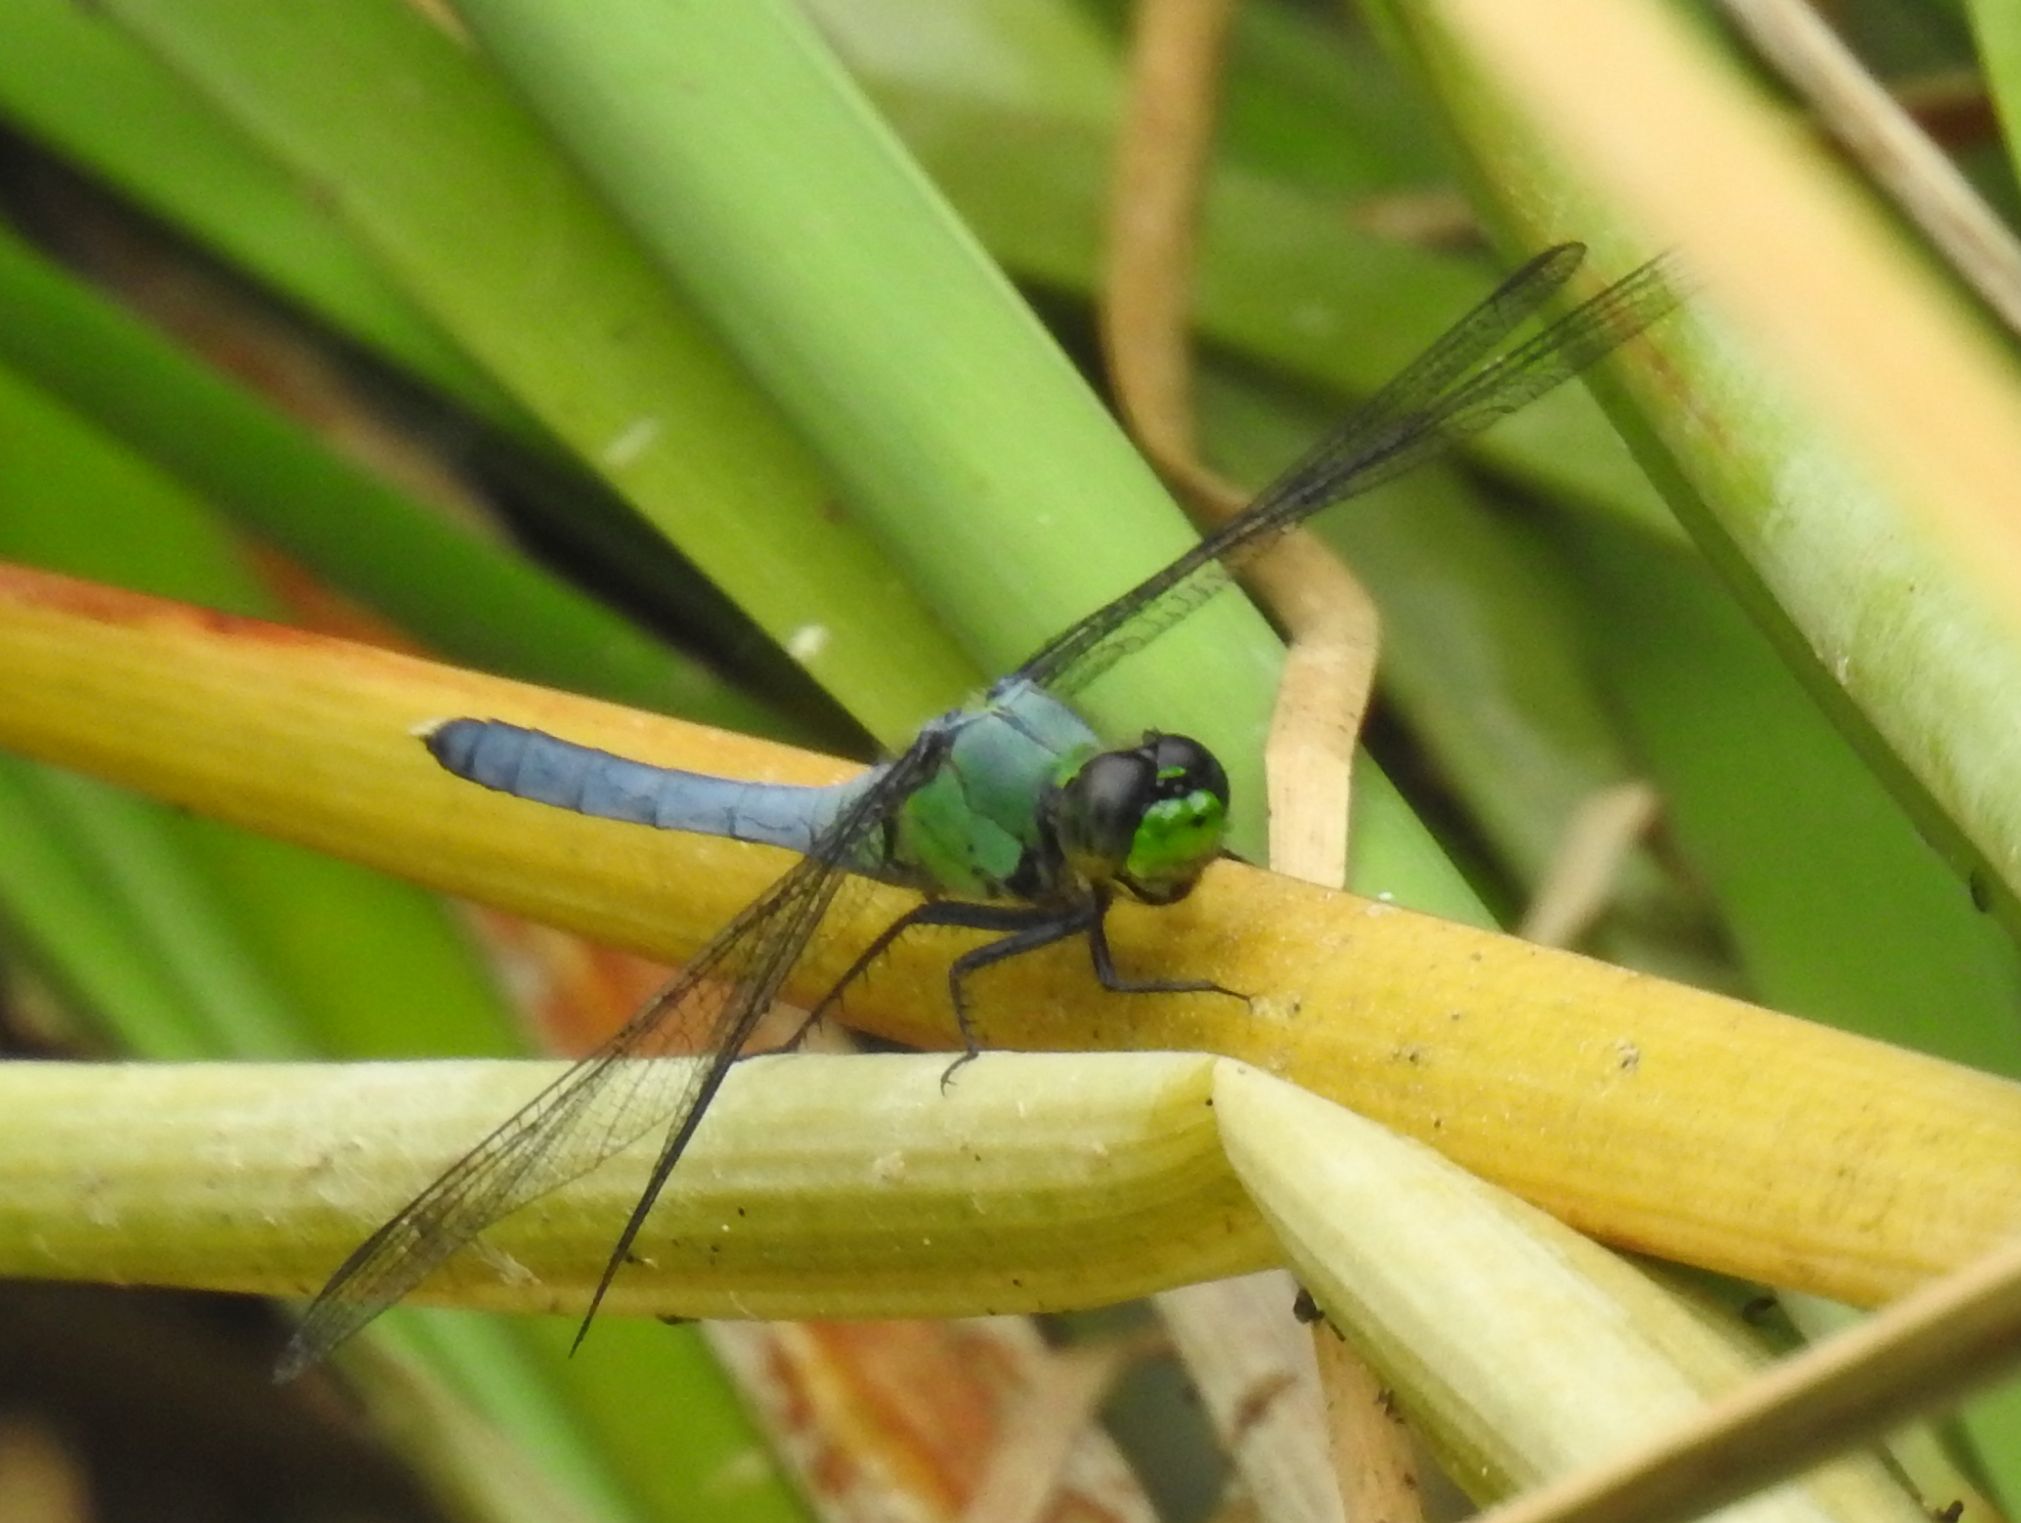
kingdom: Animalia
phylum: Arthropoda
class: Insecta
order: Odonata
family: Libellulidae
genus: Erythemis
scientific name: Erythemis simplicicollis
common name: Eastern pondhawk
